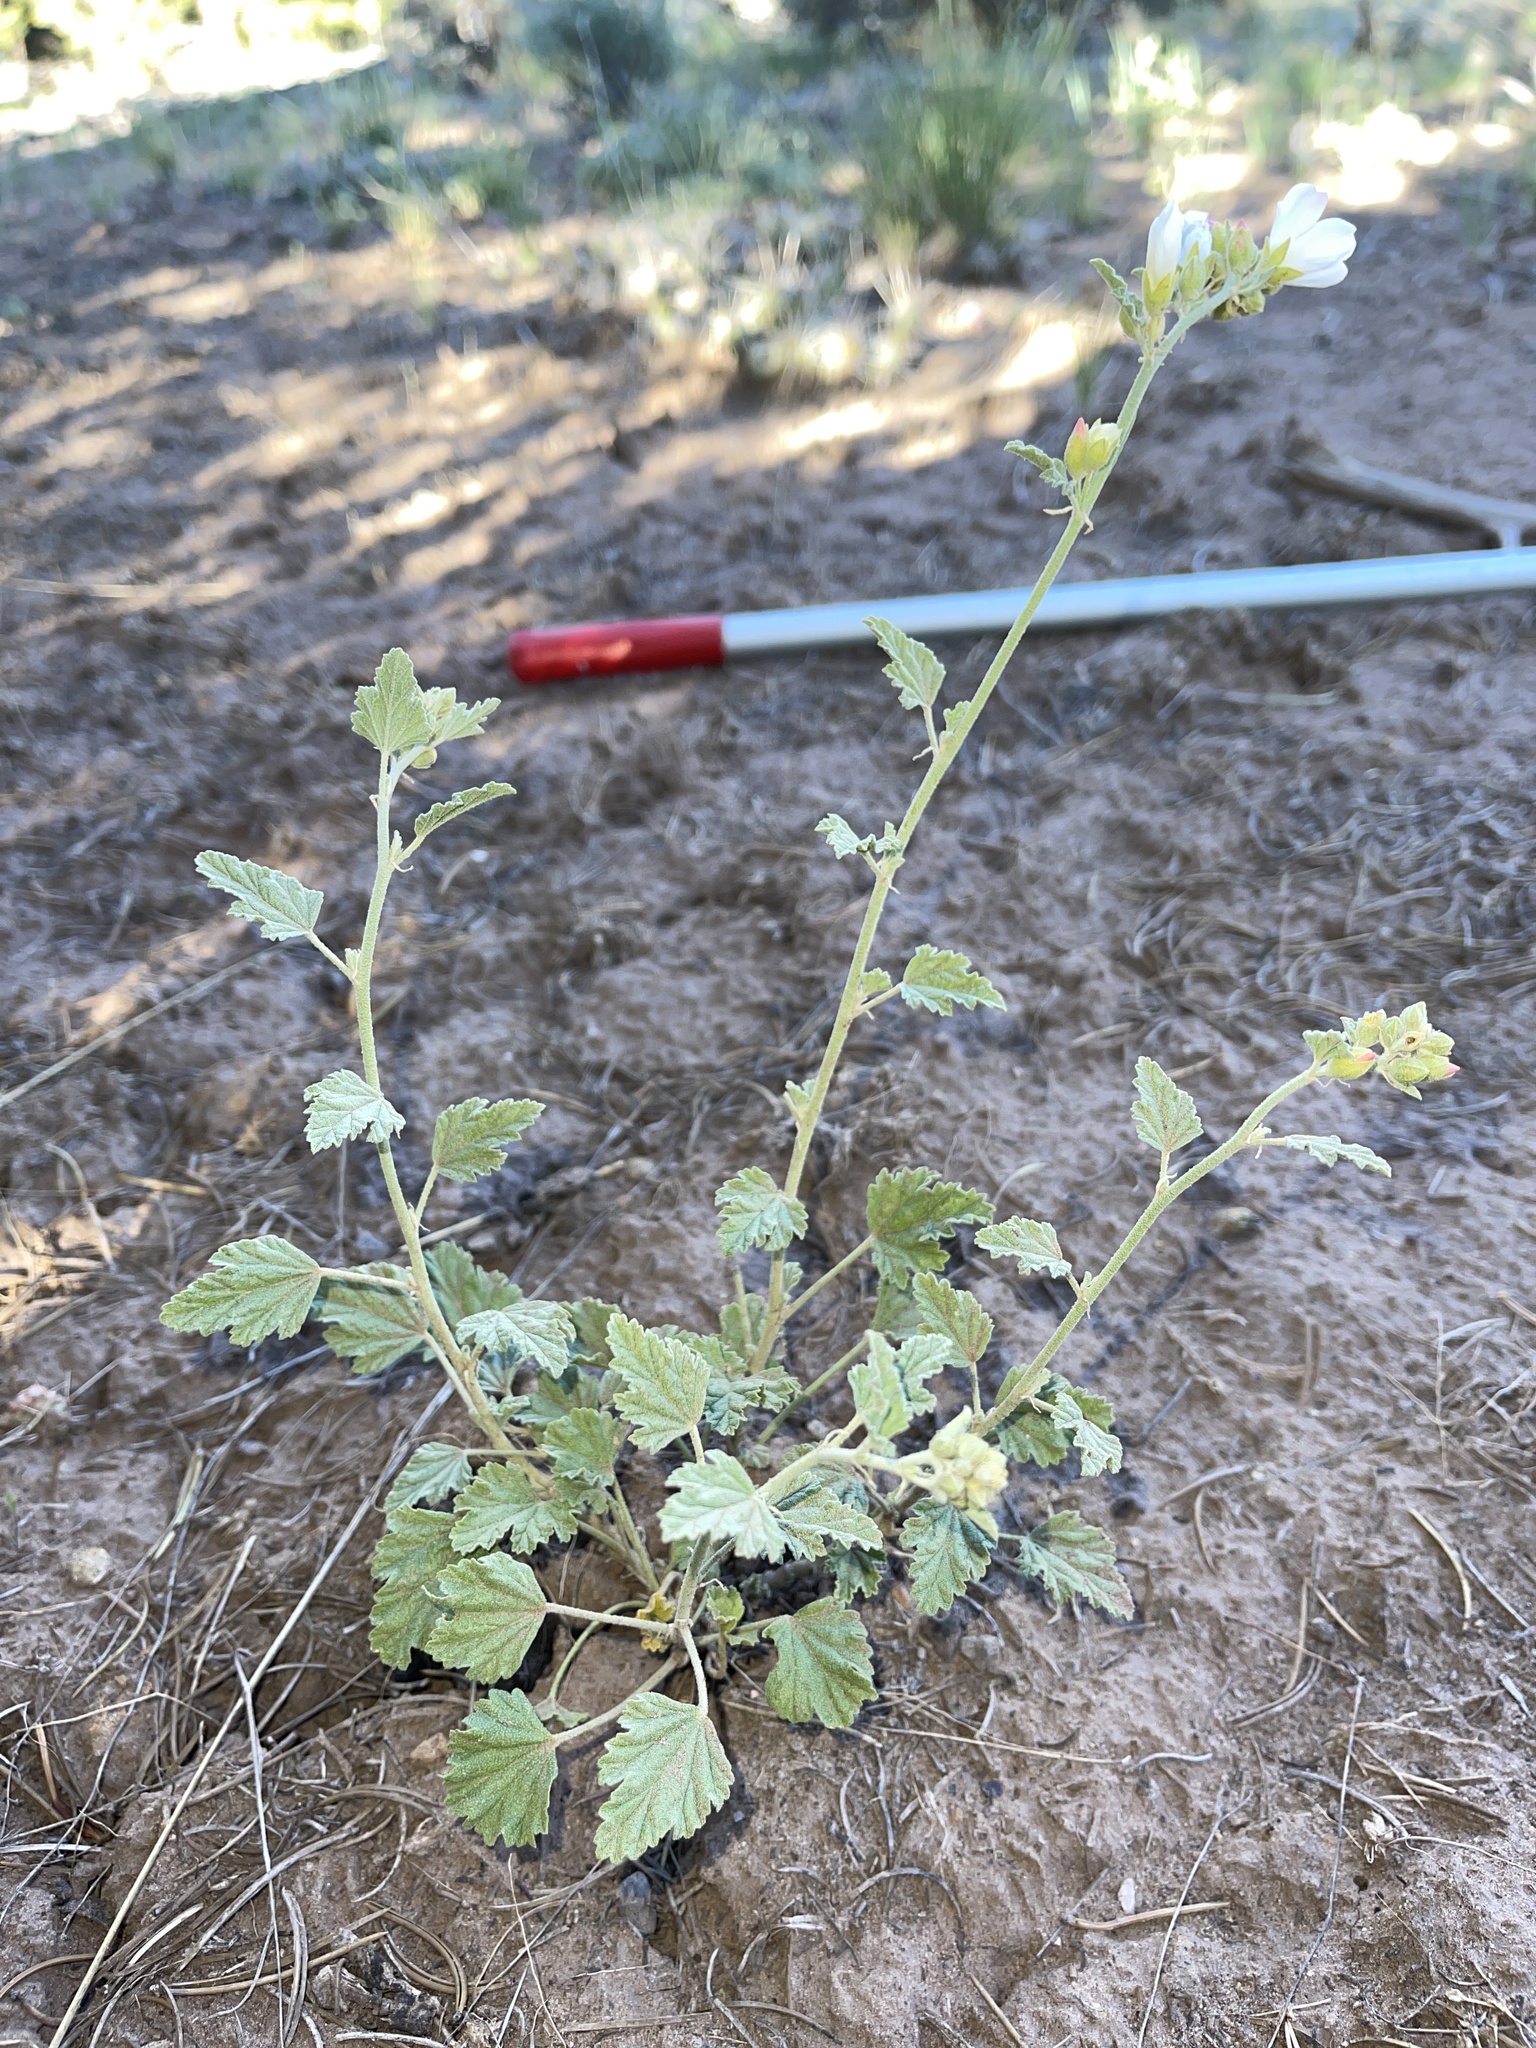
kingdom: Plantae
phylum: Tracheophyta
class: Magnoliopsida
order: Malvales
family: Malvaceae
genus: Sphaeralcea
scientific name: Sphaeralcea parvifolia
